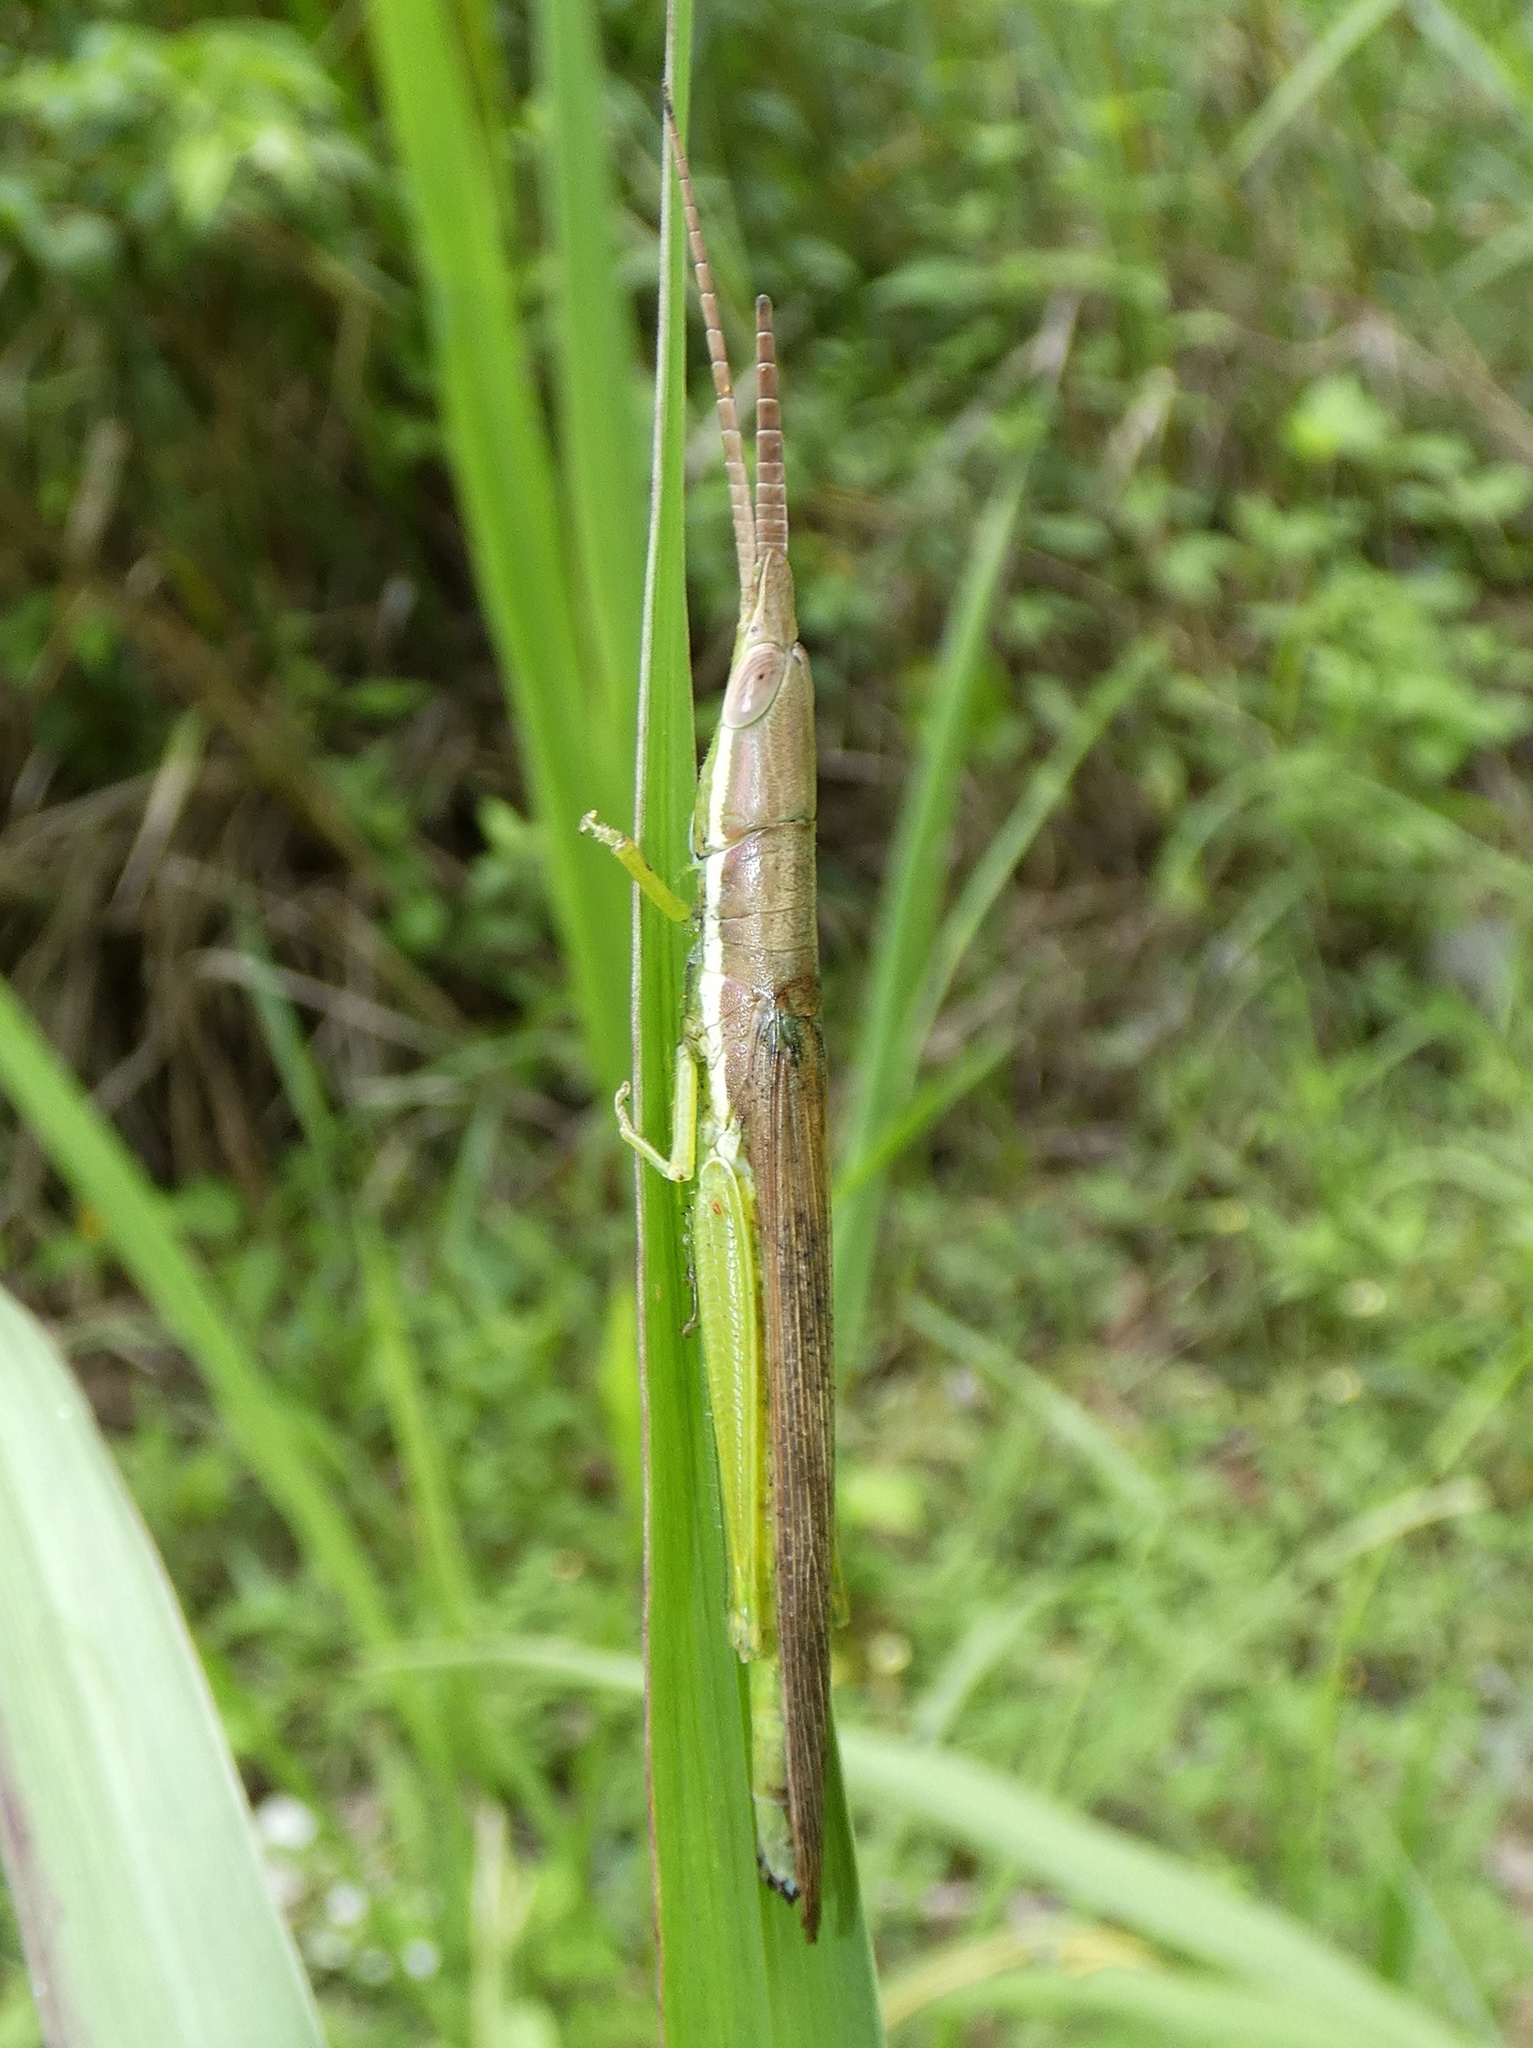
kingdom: Animalia
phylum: Arthropoda
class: Insecta
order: Orthoptera
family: Acrididae
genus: Cylindrotettix
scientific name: Cylindrotettix insularis
